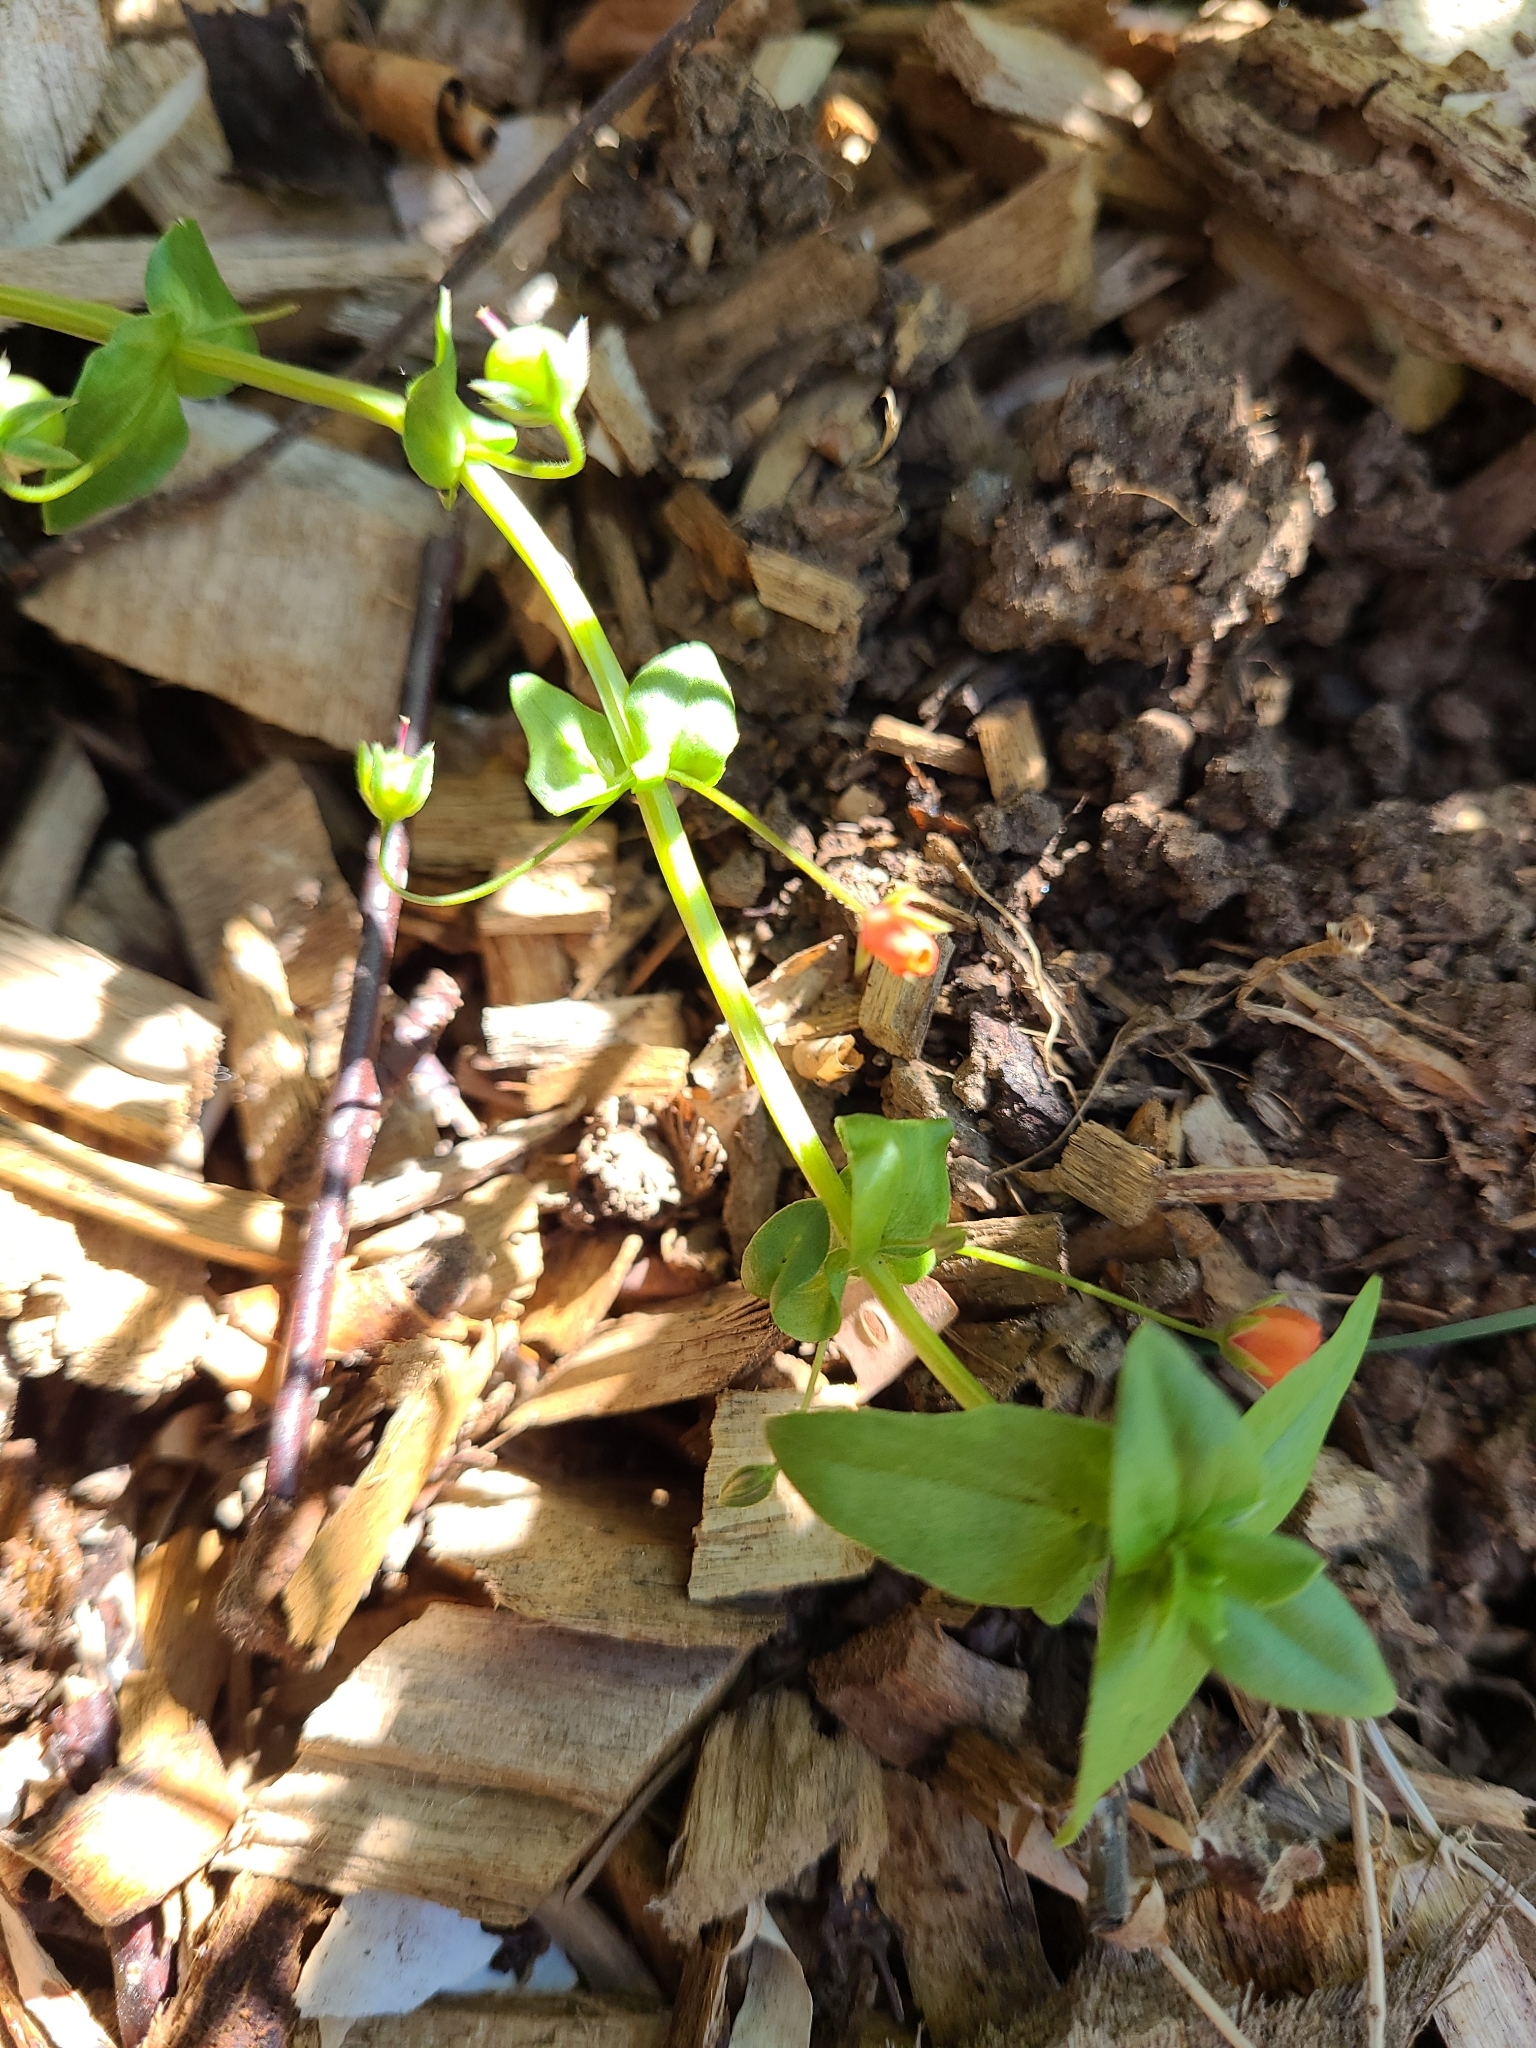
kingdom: Plantae
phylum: Tracheophyta
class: Magnoliopsida
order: Ericales
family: Primulaceae
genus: Lysimachia
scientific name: Lysimachia arvensis
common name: Scarlet pimpernel
